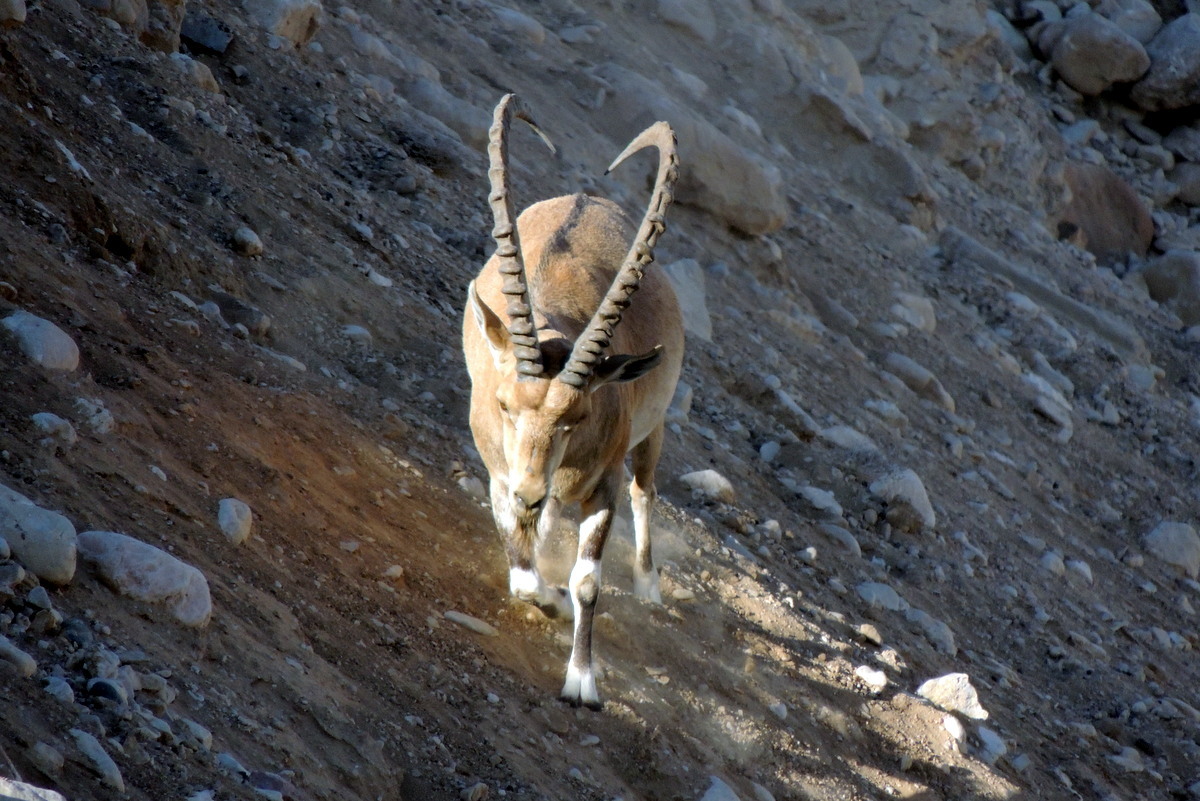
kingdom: Animalia
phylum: Chordata
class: Mammalia
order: Artiodactyla
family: Bovidae
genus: Capra
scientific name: Capra nubiana
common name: Nubian ibex
